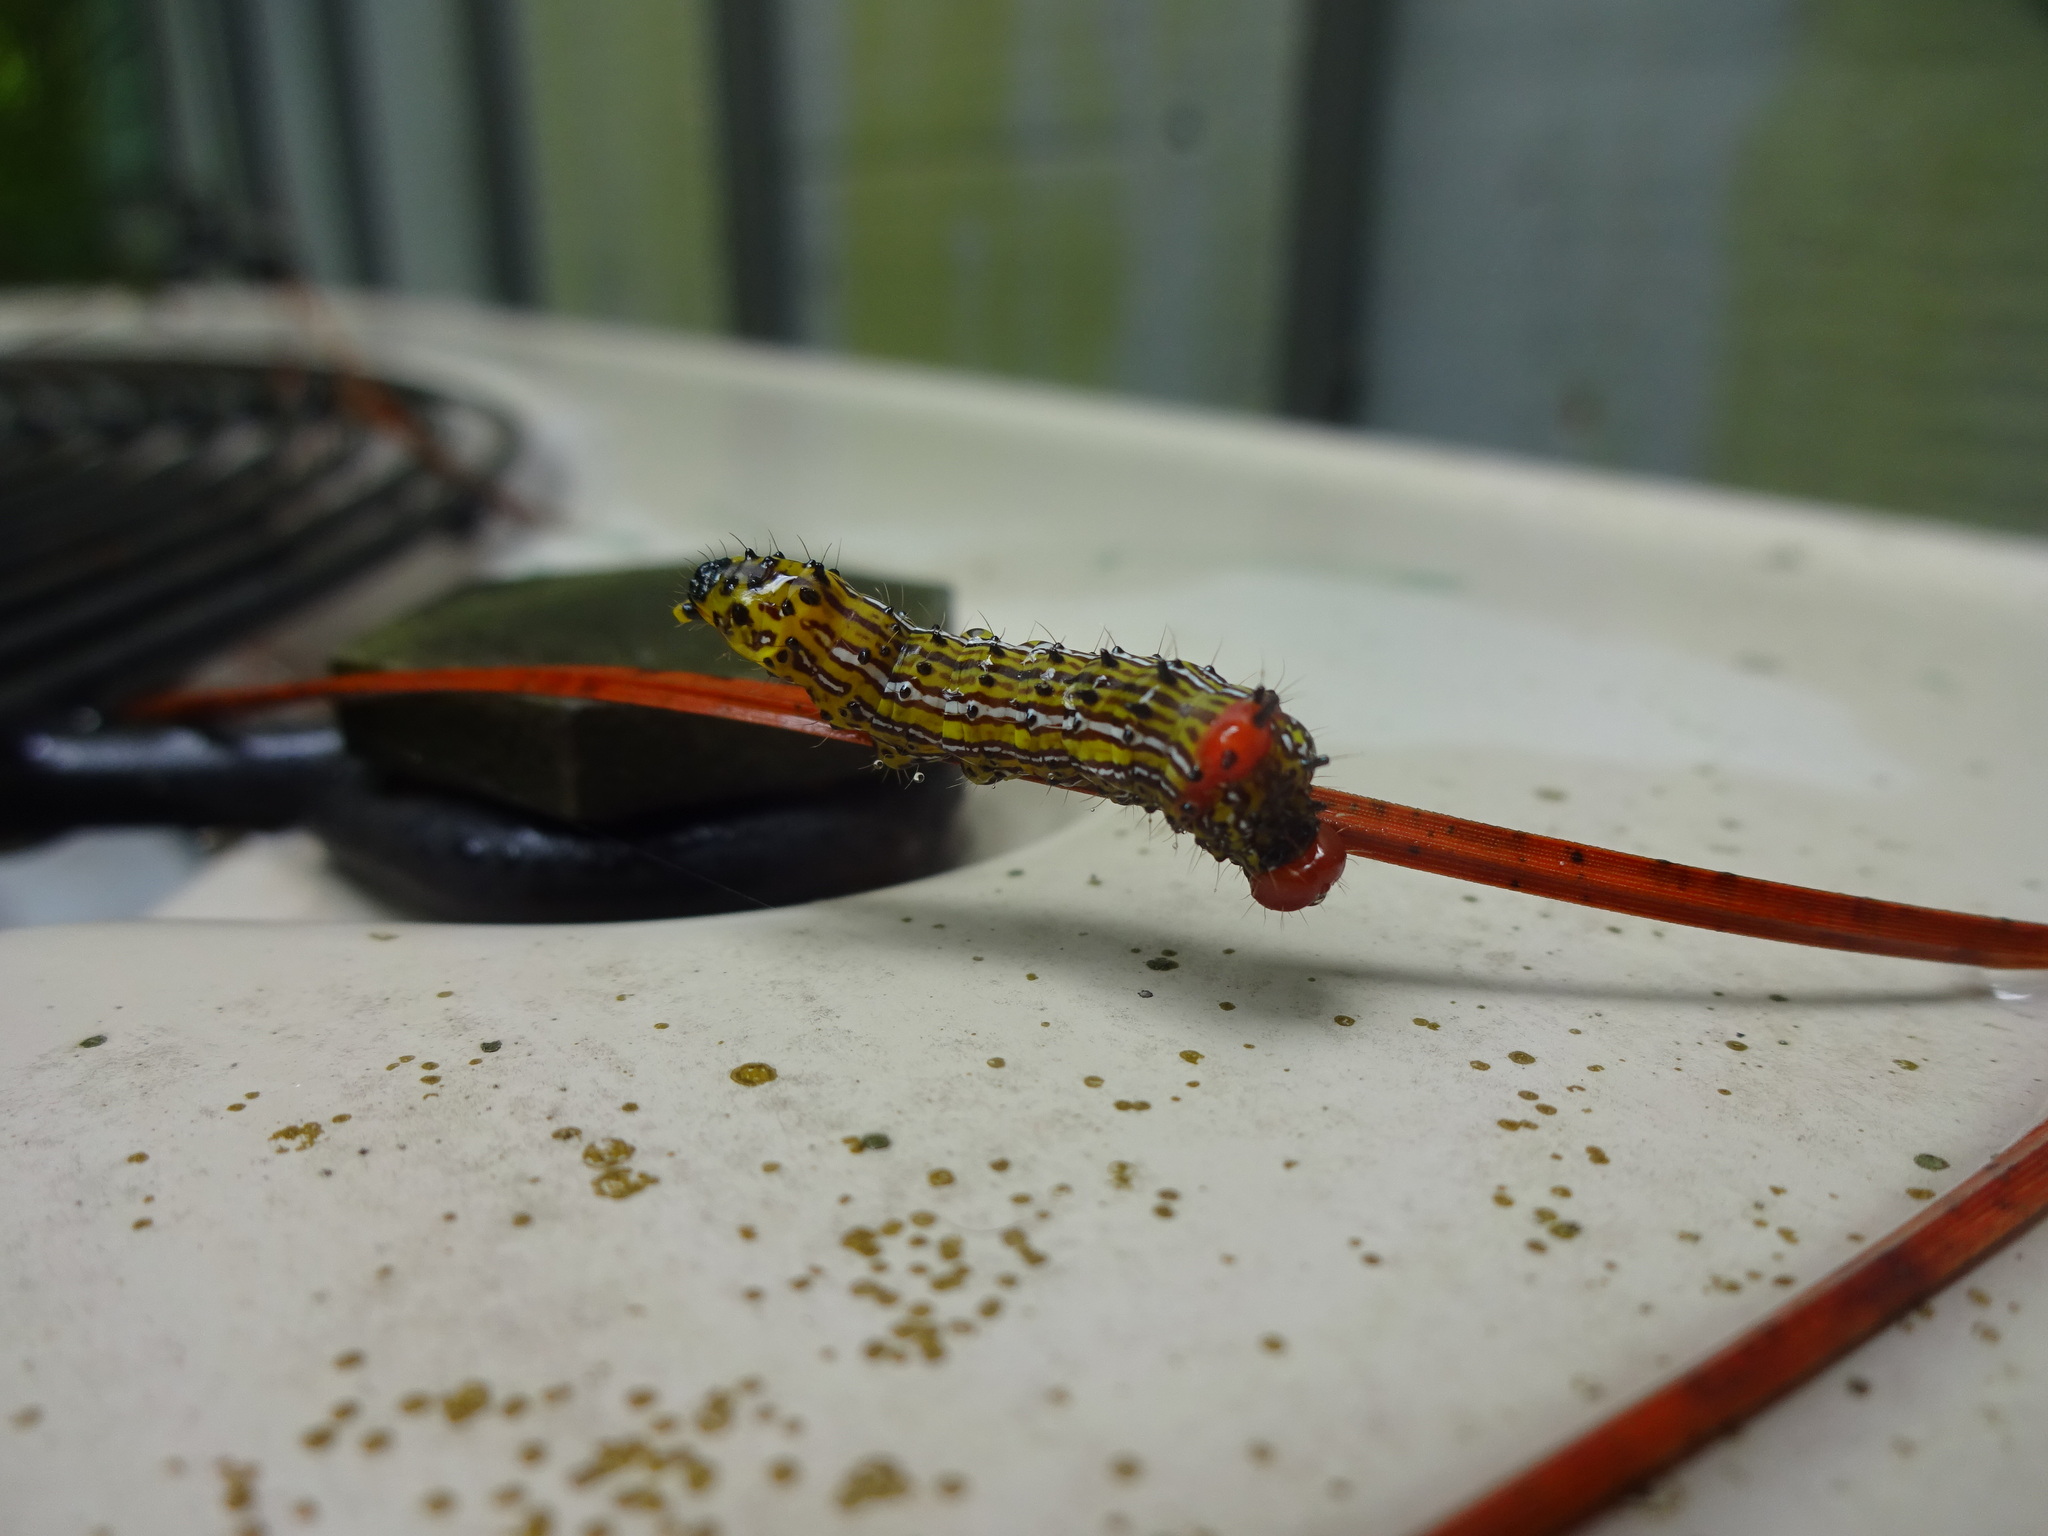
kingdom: Animalia
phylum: Arthropoda
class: Insecta
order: Lepidoptera
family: Notodontidae
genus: Schizura
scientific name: Schizura
